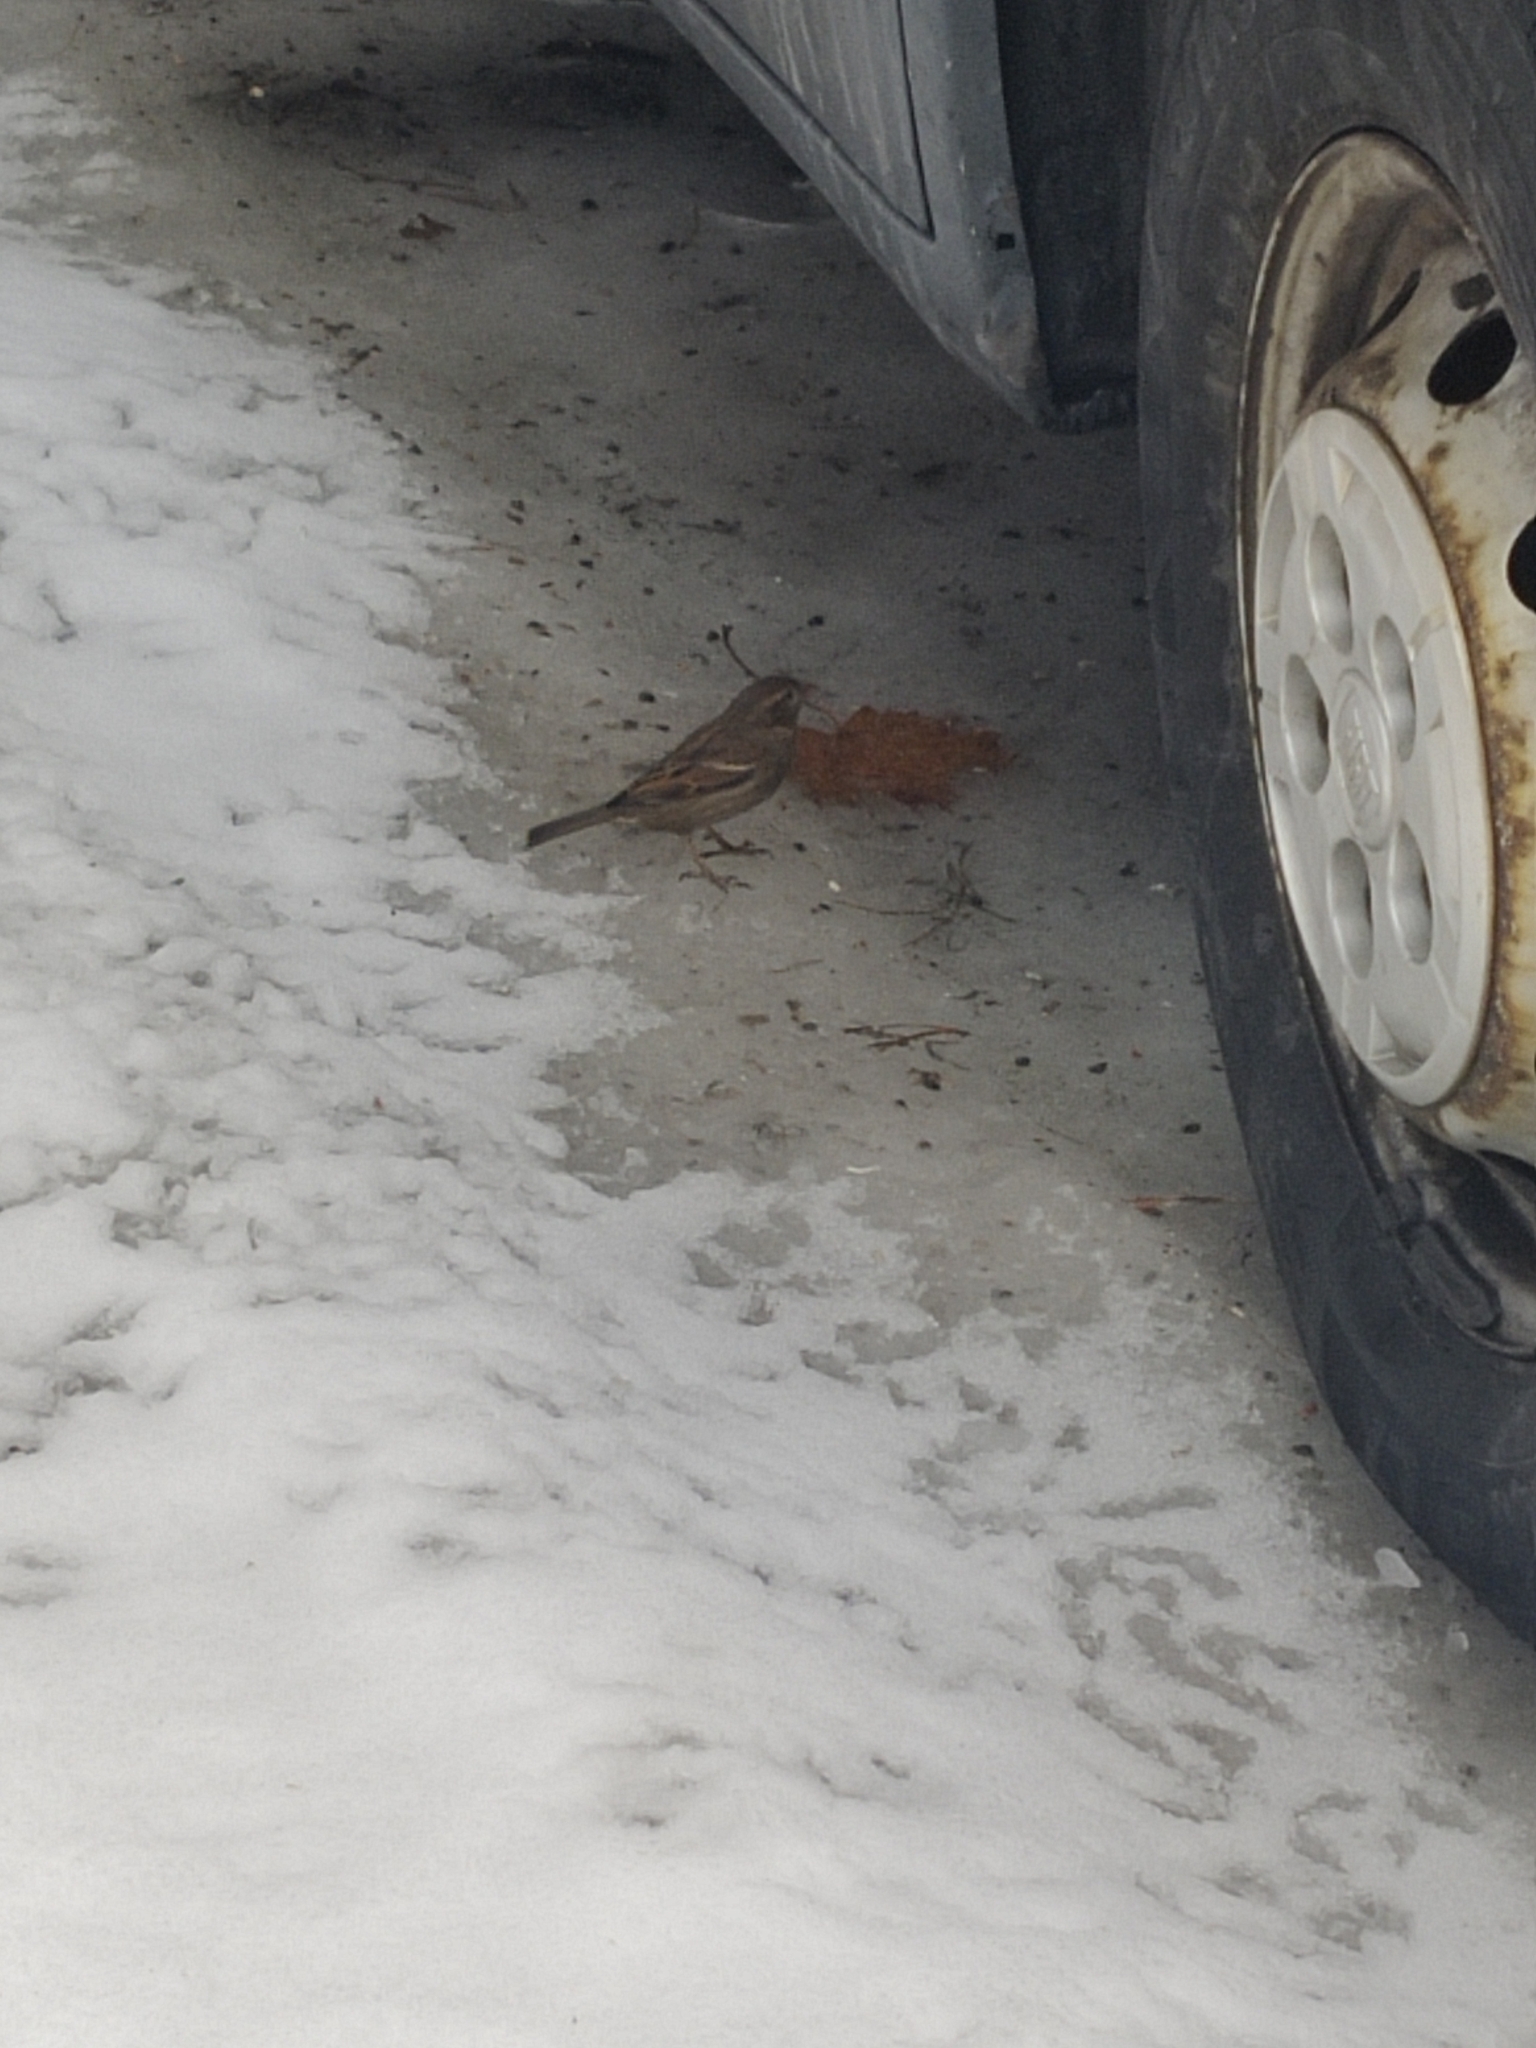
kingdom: Animalia
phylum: Chordata
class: Aves
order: Passeriformes
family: Passeridae
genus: Passer
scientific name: Passer domesticus
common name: House sparrow
